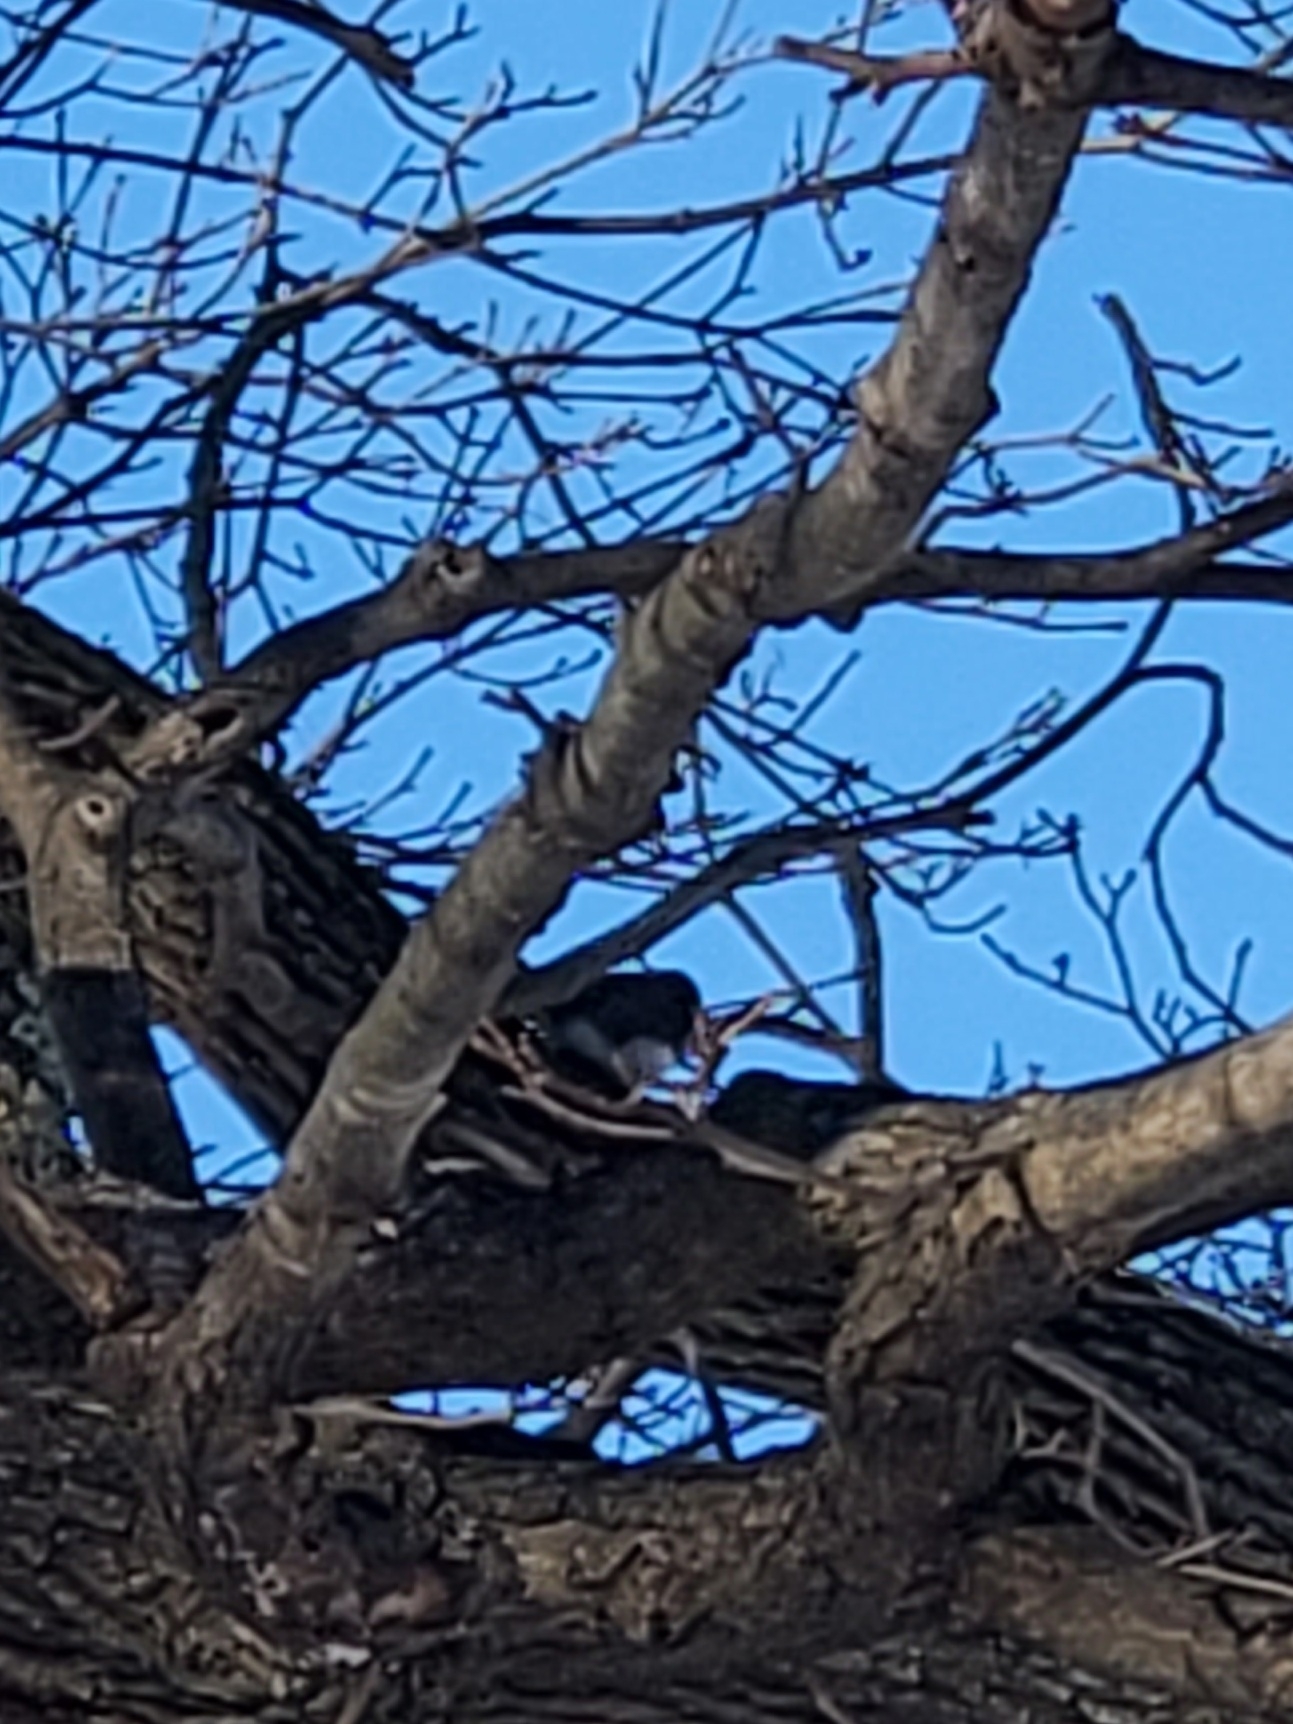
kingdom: Animalia
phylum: Chordata
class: Aves
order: Passeriformes
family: Passerellidae
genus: Junco
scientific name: Junco hyemalis
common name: Dark-eyed junco
